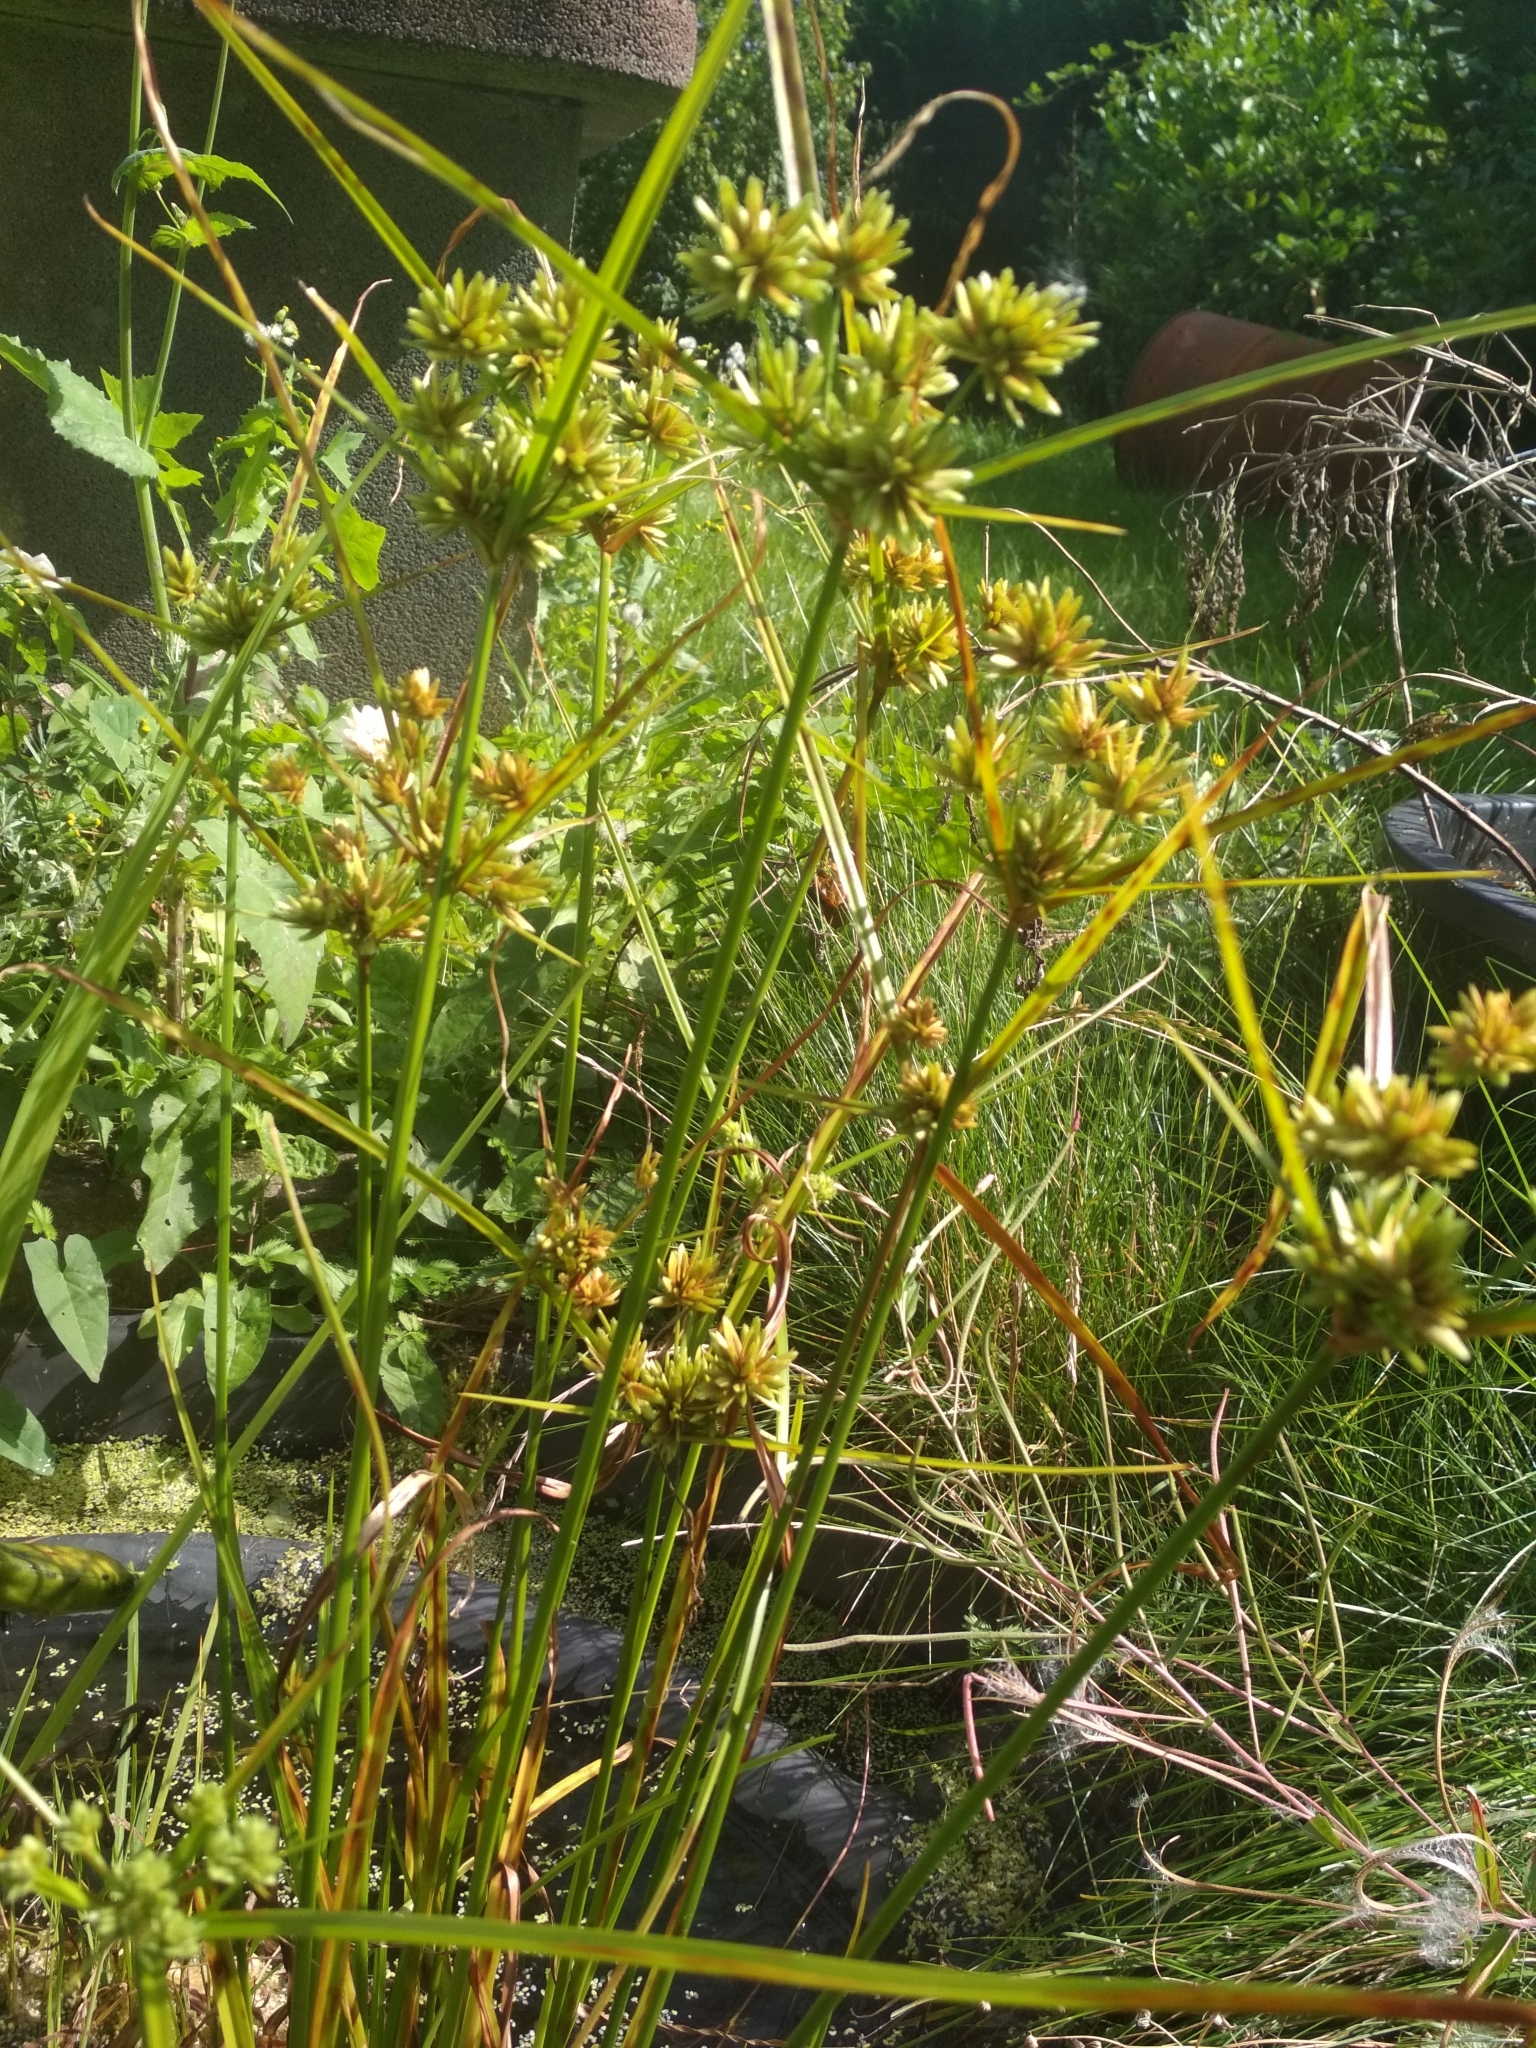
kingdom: Plantae
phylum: Tracheophyta
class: Liliopsida
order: Poales
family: Cyperaceae
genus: Cyperus
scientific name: Cyperus eragrostis
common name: Tall flatsedge
